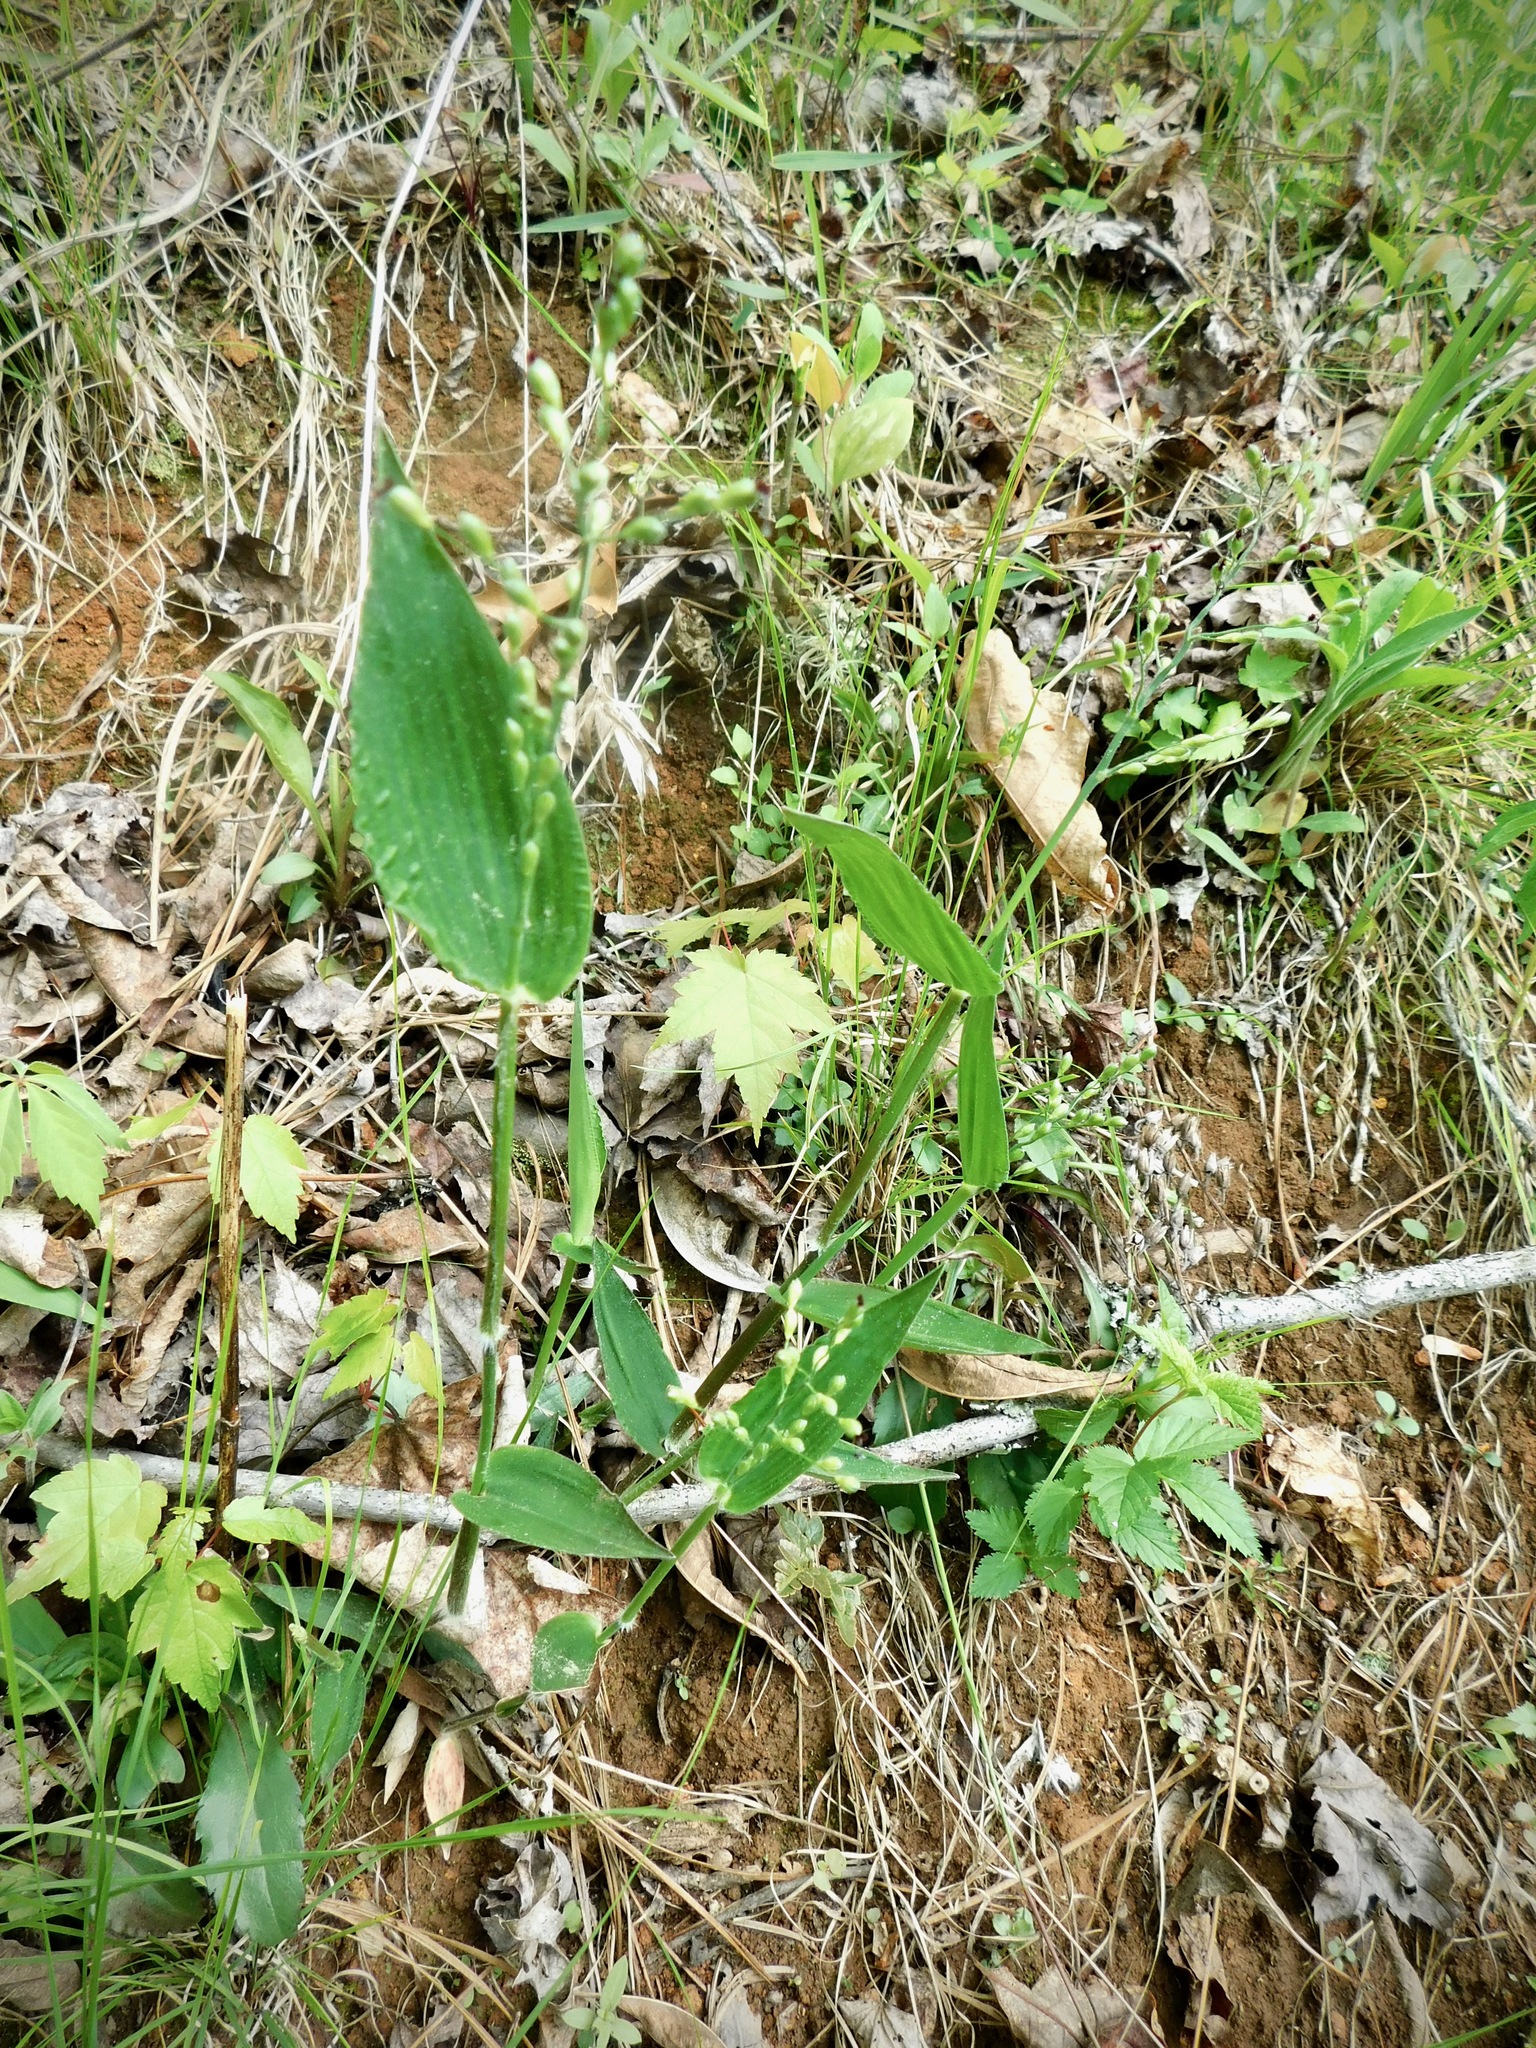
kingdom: Plantae
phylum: Tracheophyta
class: Liliopsida
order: Poales
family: Poaceae
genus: Dichanthelium
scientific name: Dichanthelium boscii
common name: Bosc's panic grass
